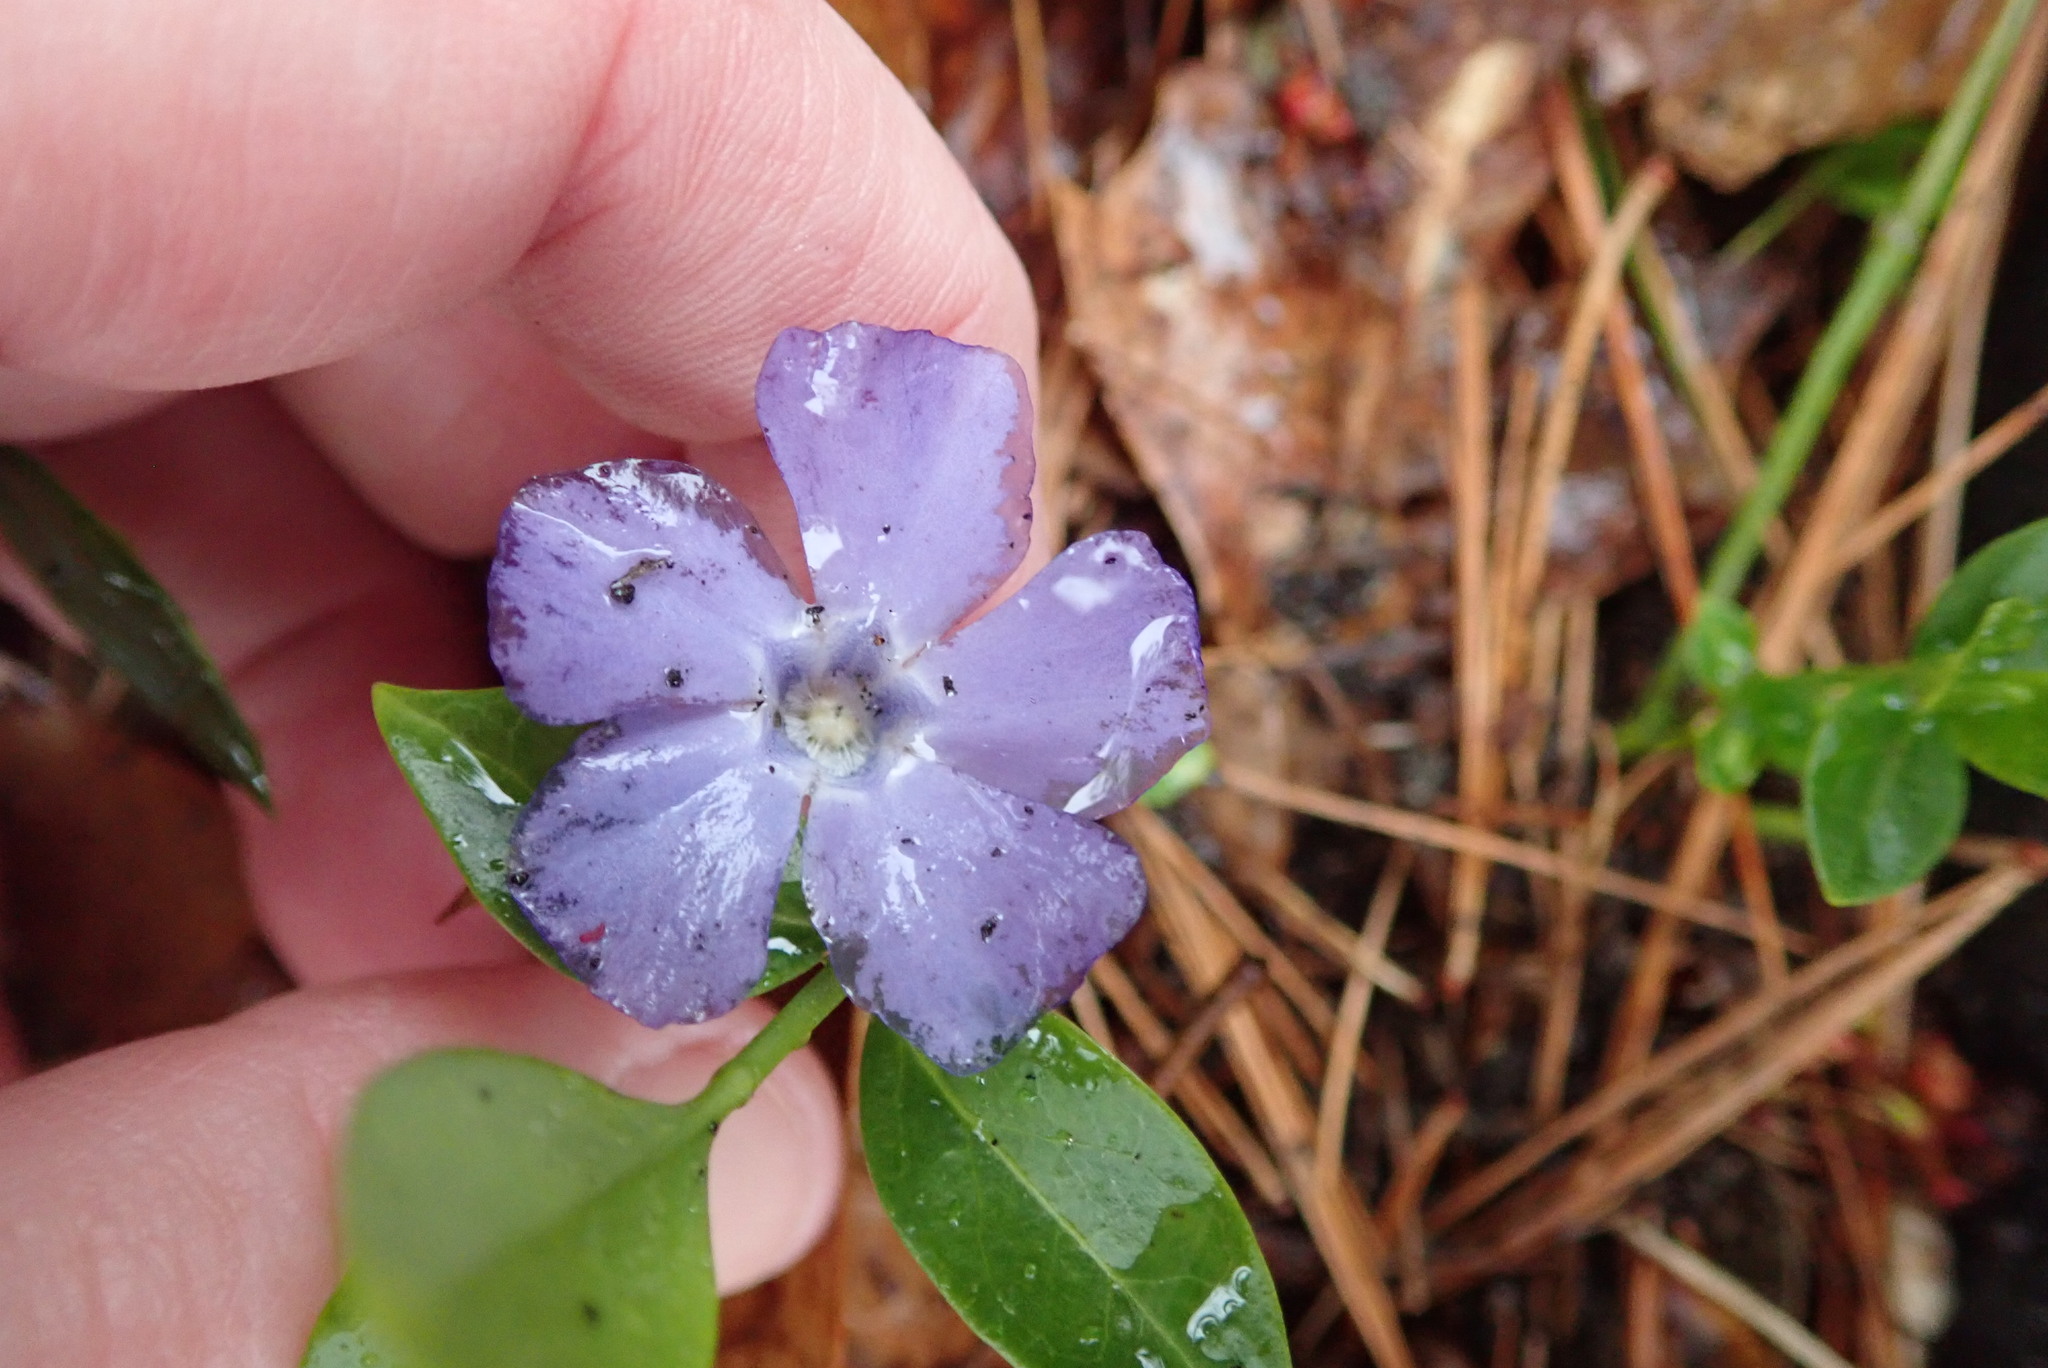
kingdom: Plantae
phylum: Tracheophyta
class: Magnoliopsida
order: Gentianales
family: Apocynaceae
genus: Vinca
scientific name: Vinca minor
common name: Lesser periwinkle
